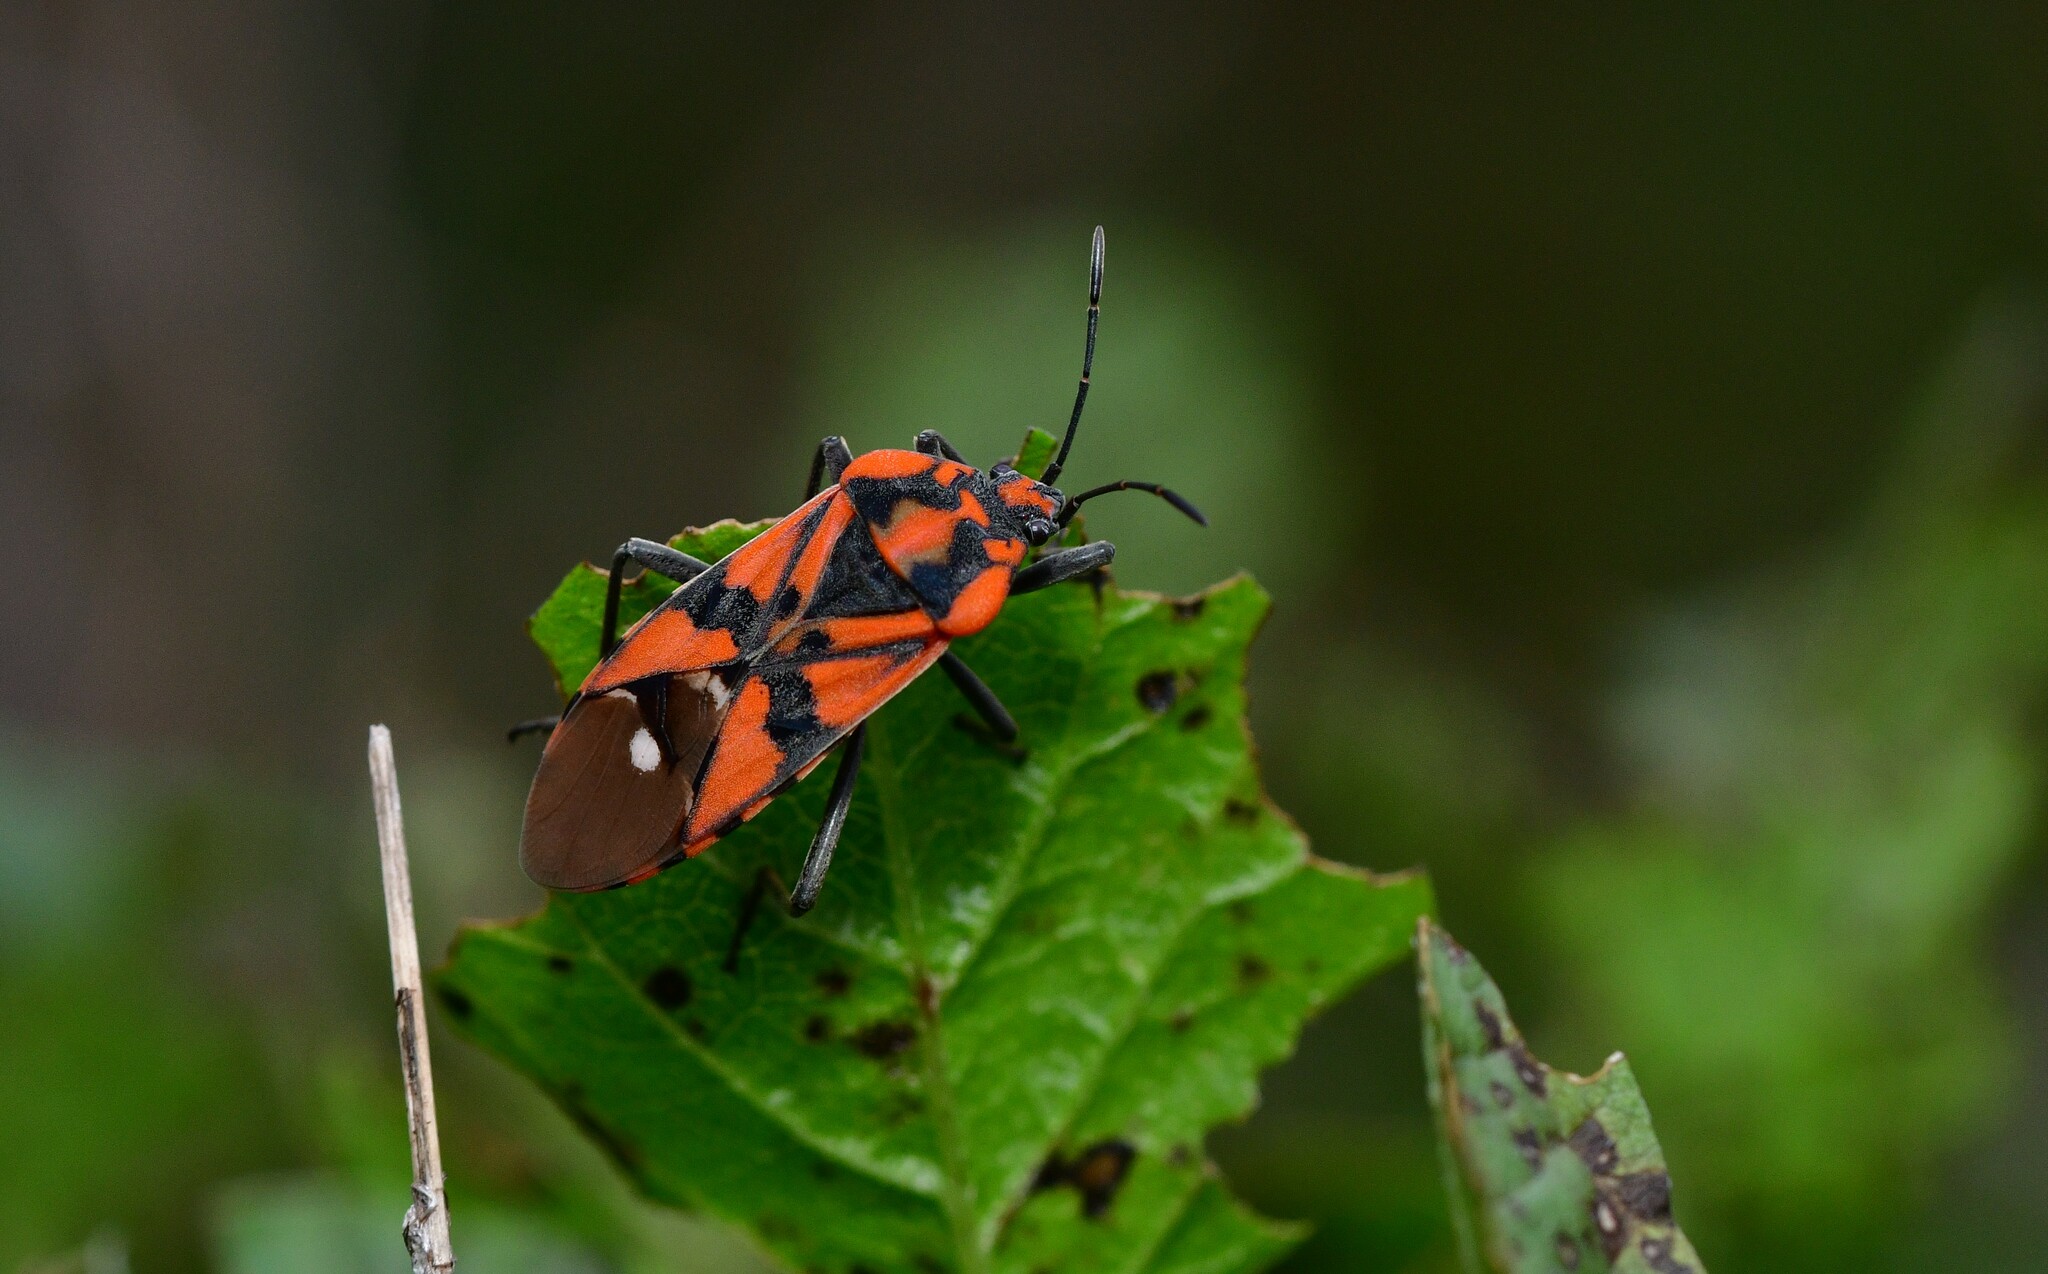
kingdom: Animalia
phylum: Arthropoda
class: Insecta
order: Hemiptera
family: Lygaeidae
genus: Spilostethus
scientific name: Spilostethus pandurus
